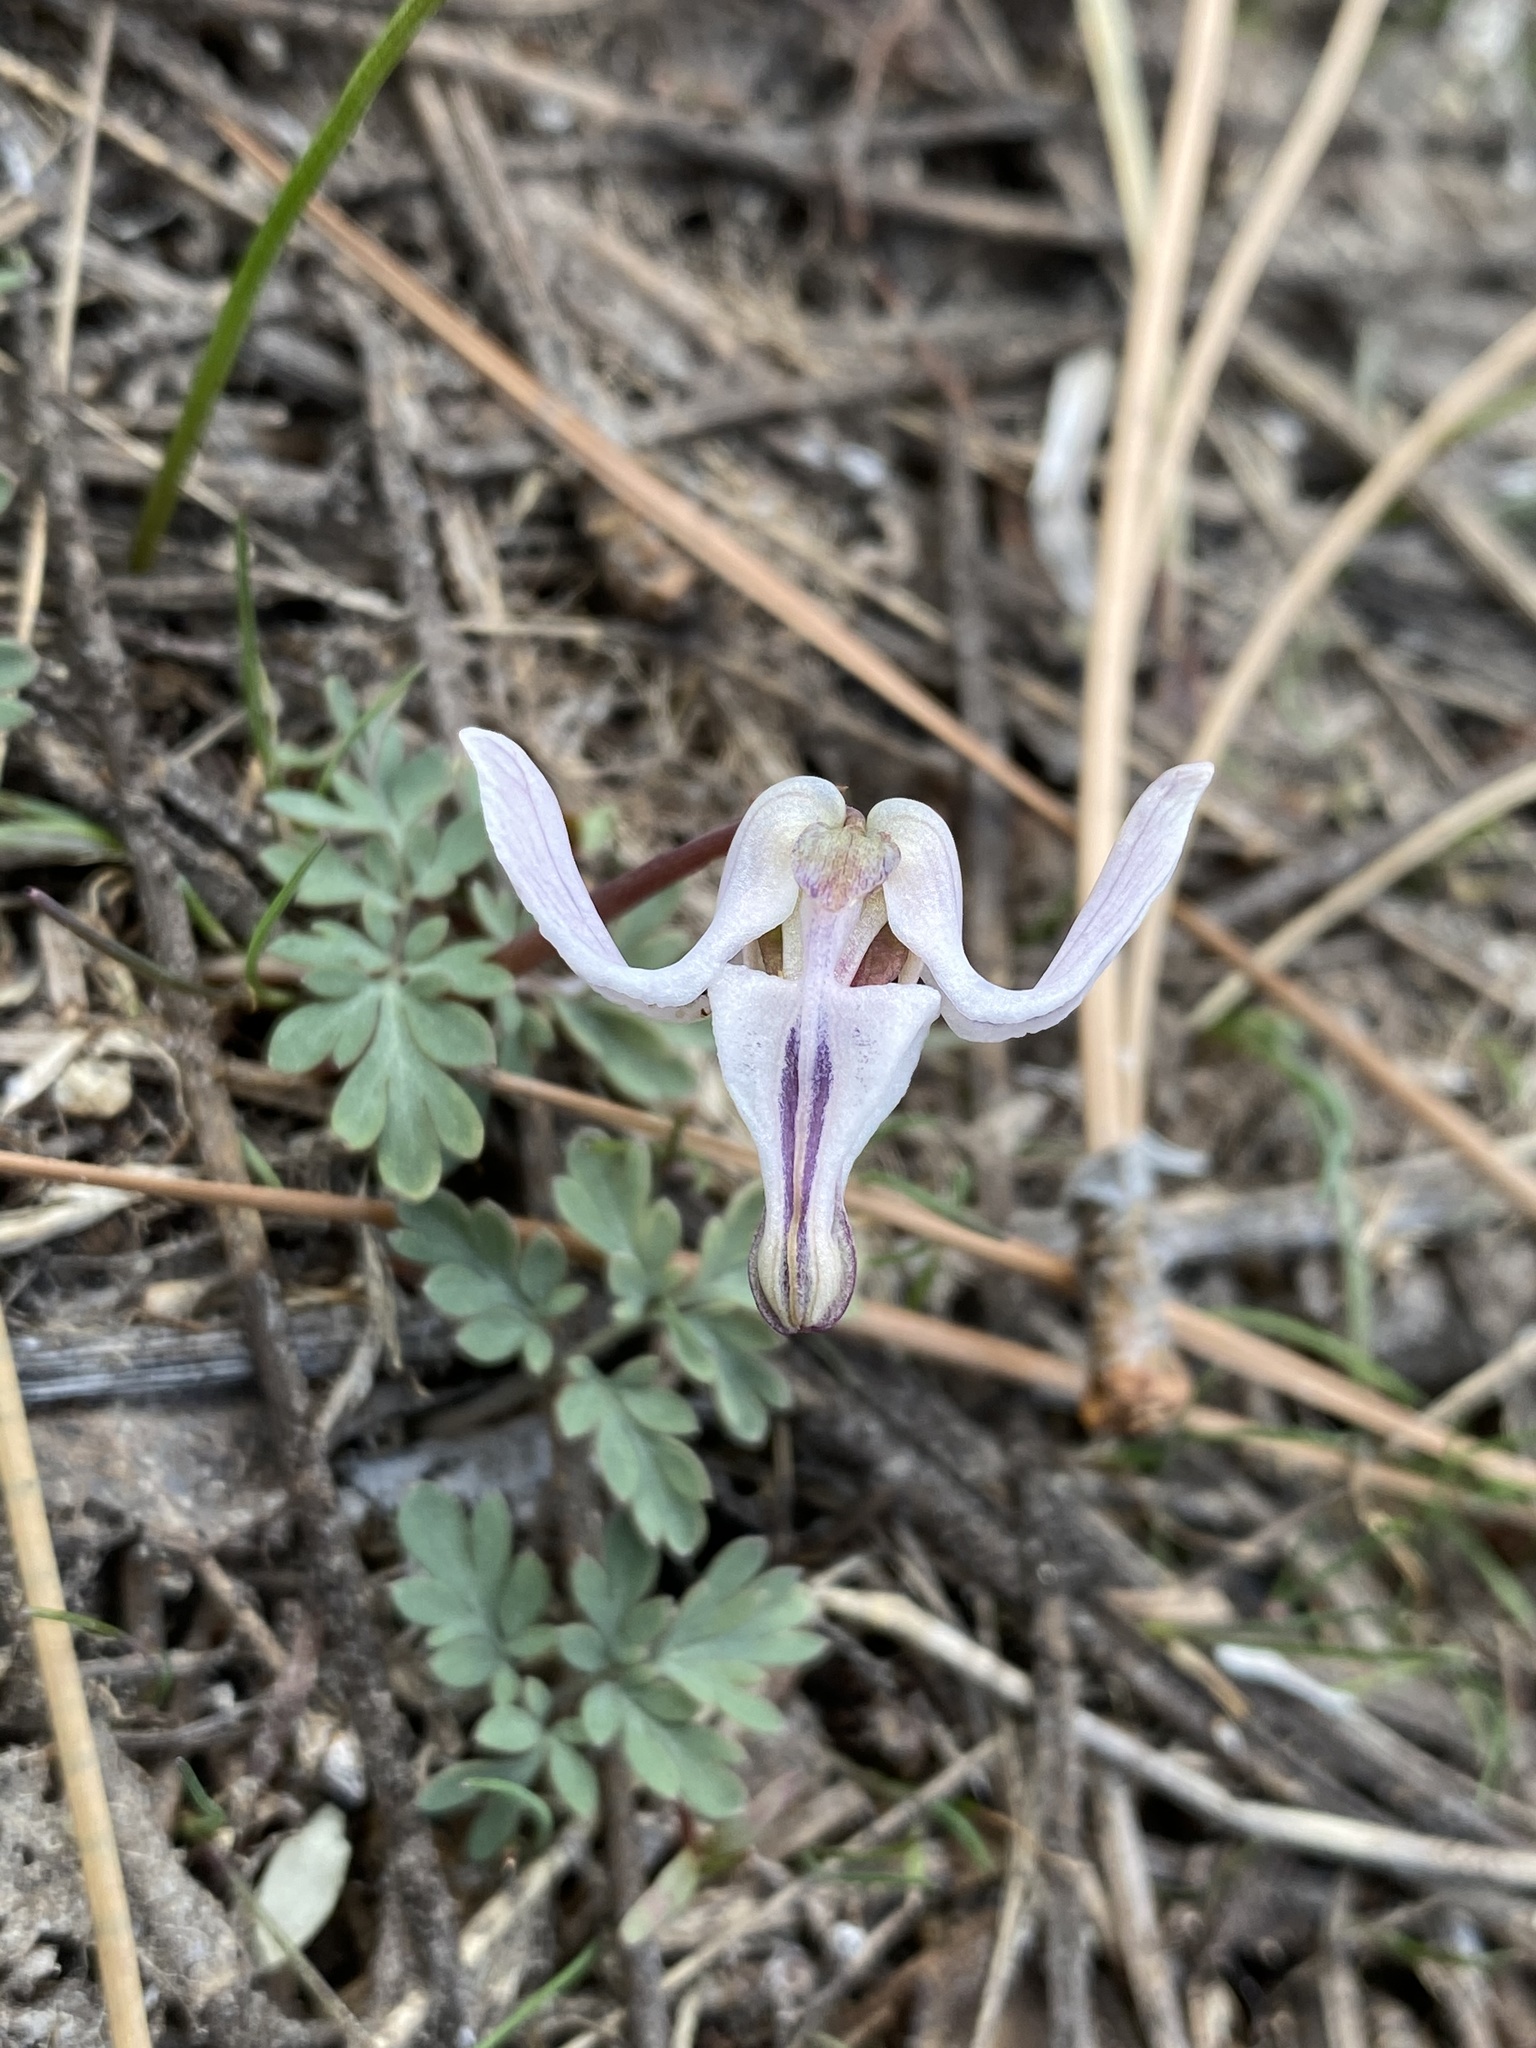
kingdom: Plantae
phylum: Tracheophyta
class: Magnoliopsida
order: Ranunculales
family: Papaveraceae
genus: Dicentra
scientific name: Dicentra uniflora
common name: Steer's-head
